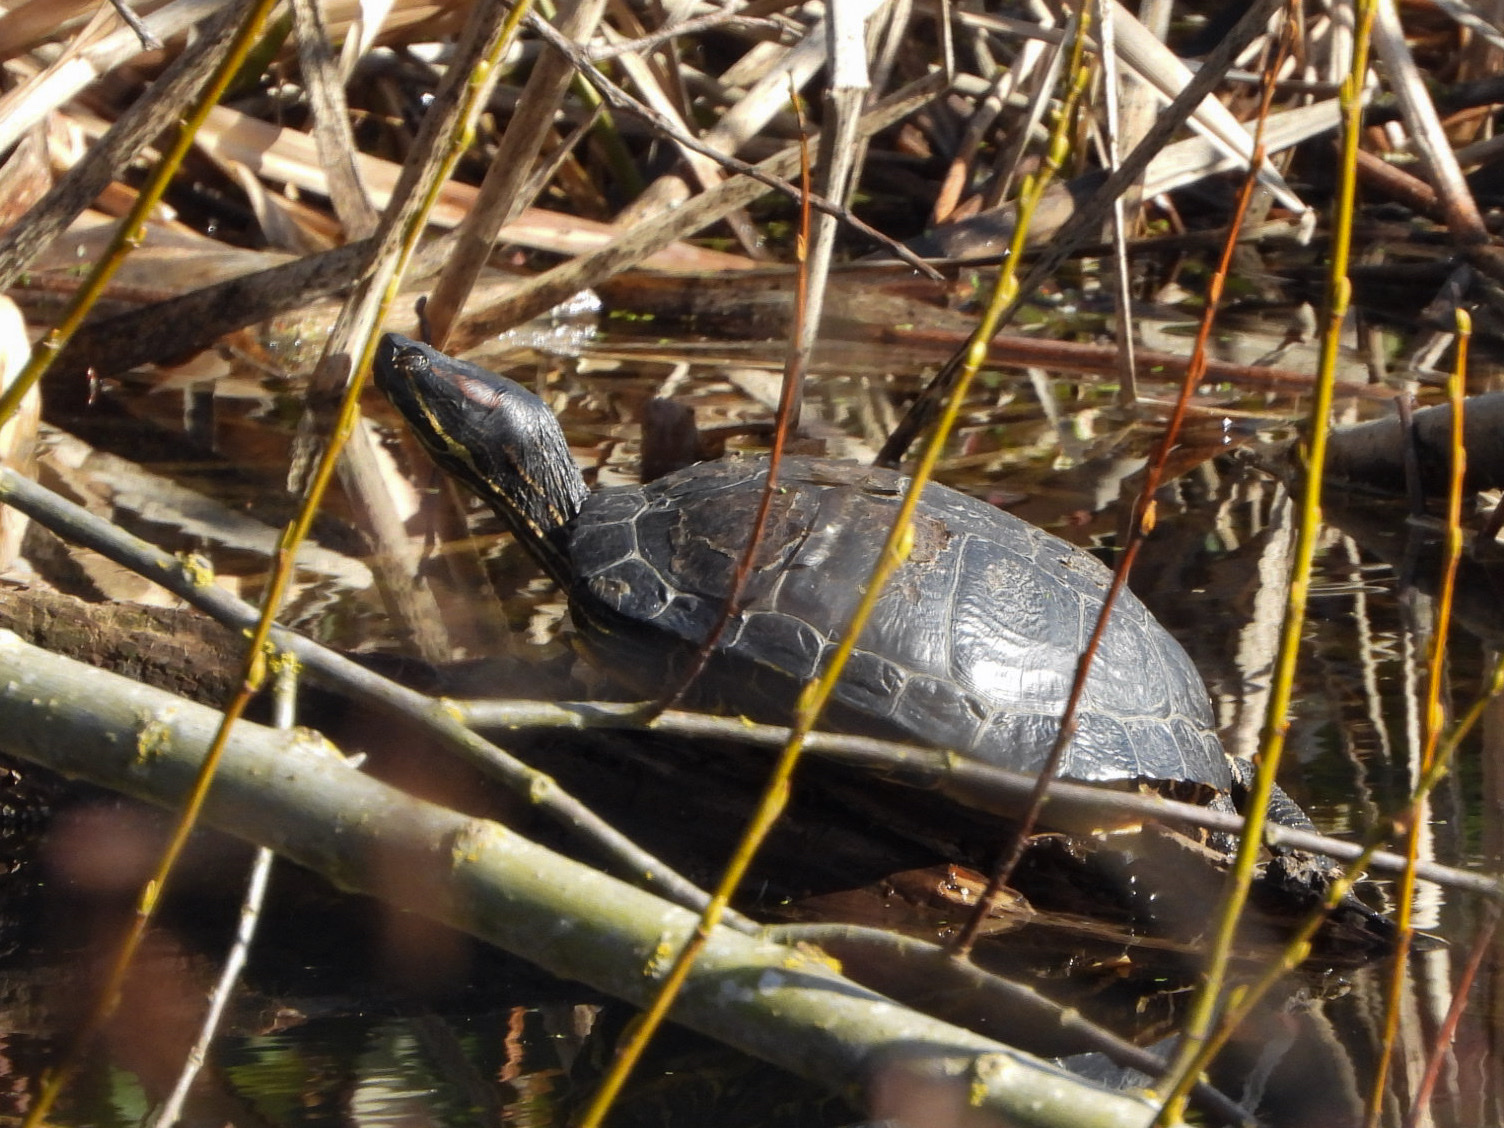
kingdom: Animalia
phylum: Chordata
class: Testudines
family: Emydidae
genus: Trachemys
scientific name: Trachemys scripta
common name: Slider
